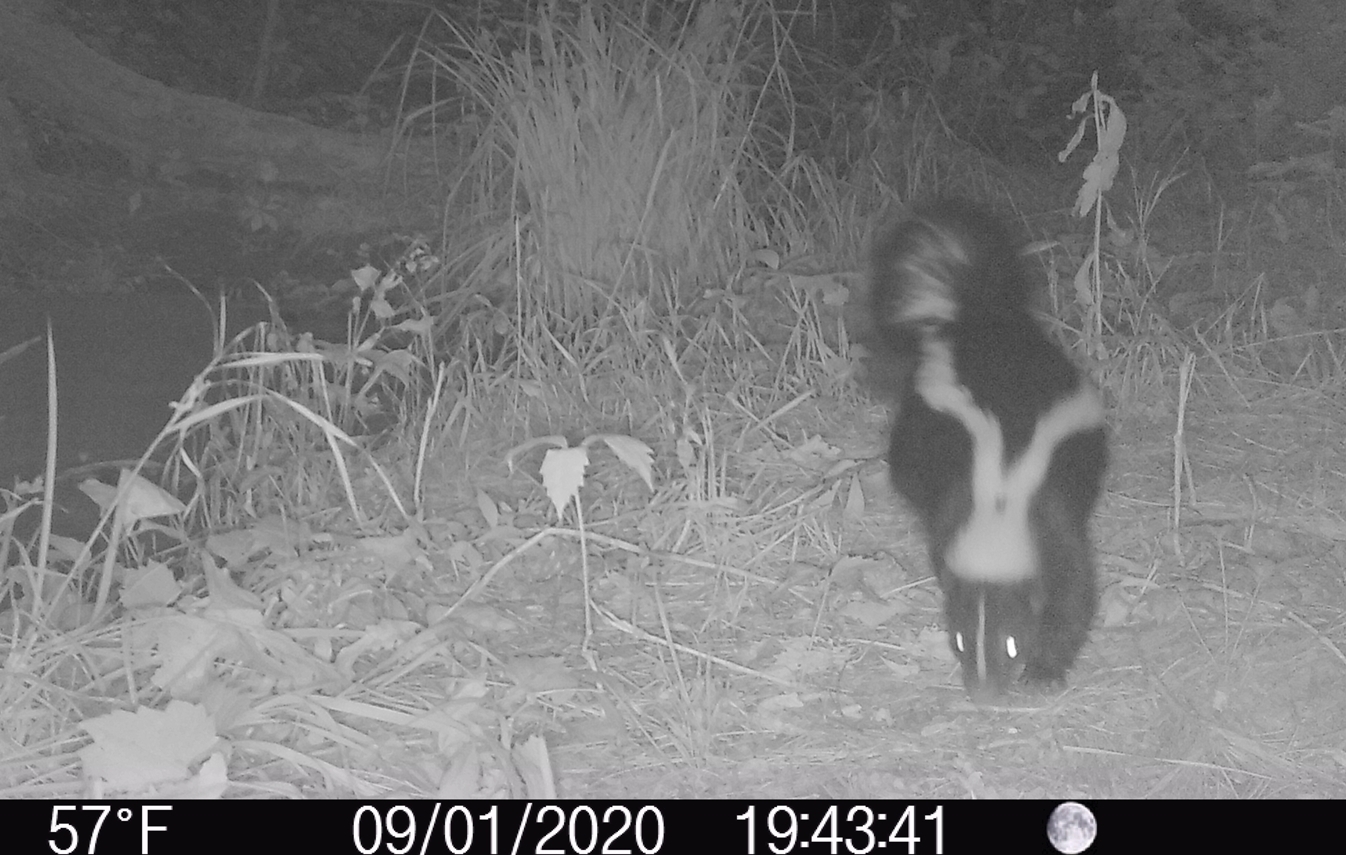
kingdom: Animalia
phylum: Chordata
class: Mammalia
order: Carnivora
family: Mephitidae
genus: Mephitis
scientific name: Mephitis mephitis
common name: Striped skunk
